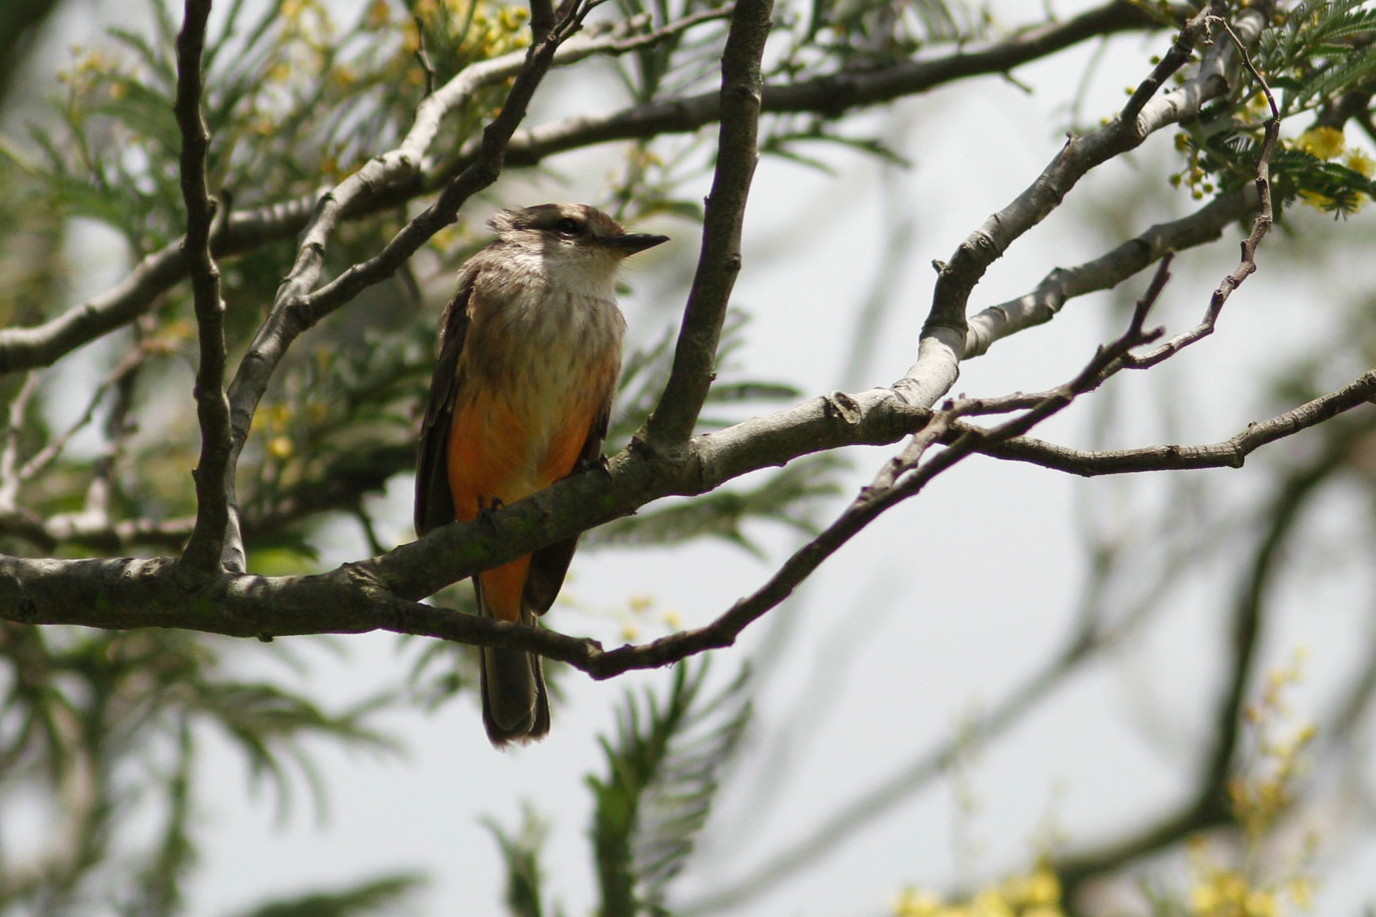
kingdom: Animalia
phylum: Chordata
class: Aves
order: Passeriformes
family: Tyrannidae
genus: Pyrocephalus
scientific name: Pyrocephalus rubinus
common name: Vermilion flycatcher
